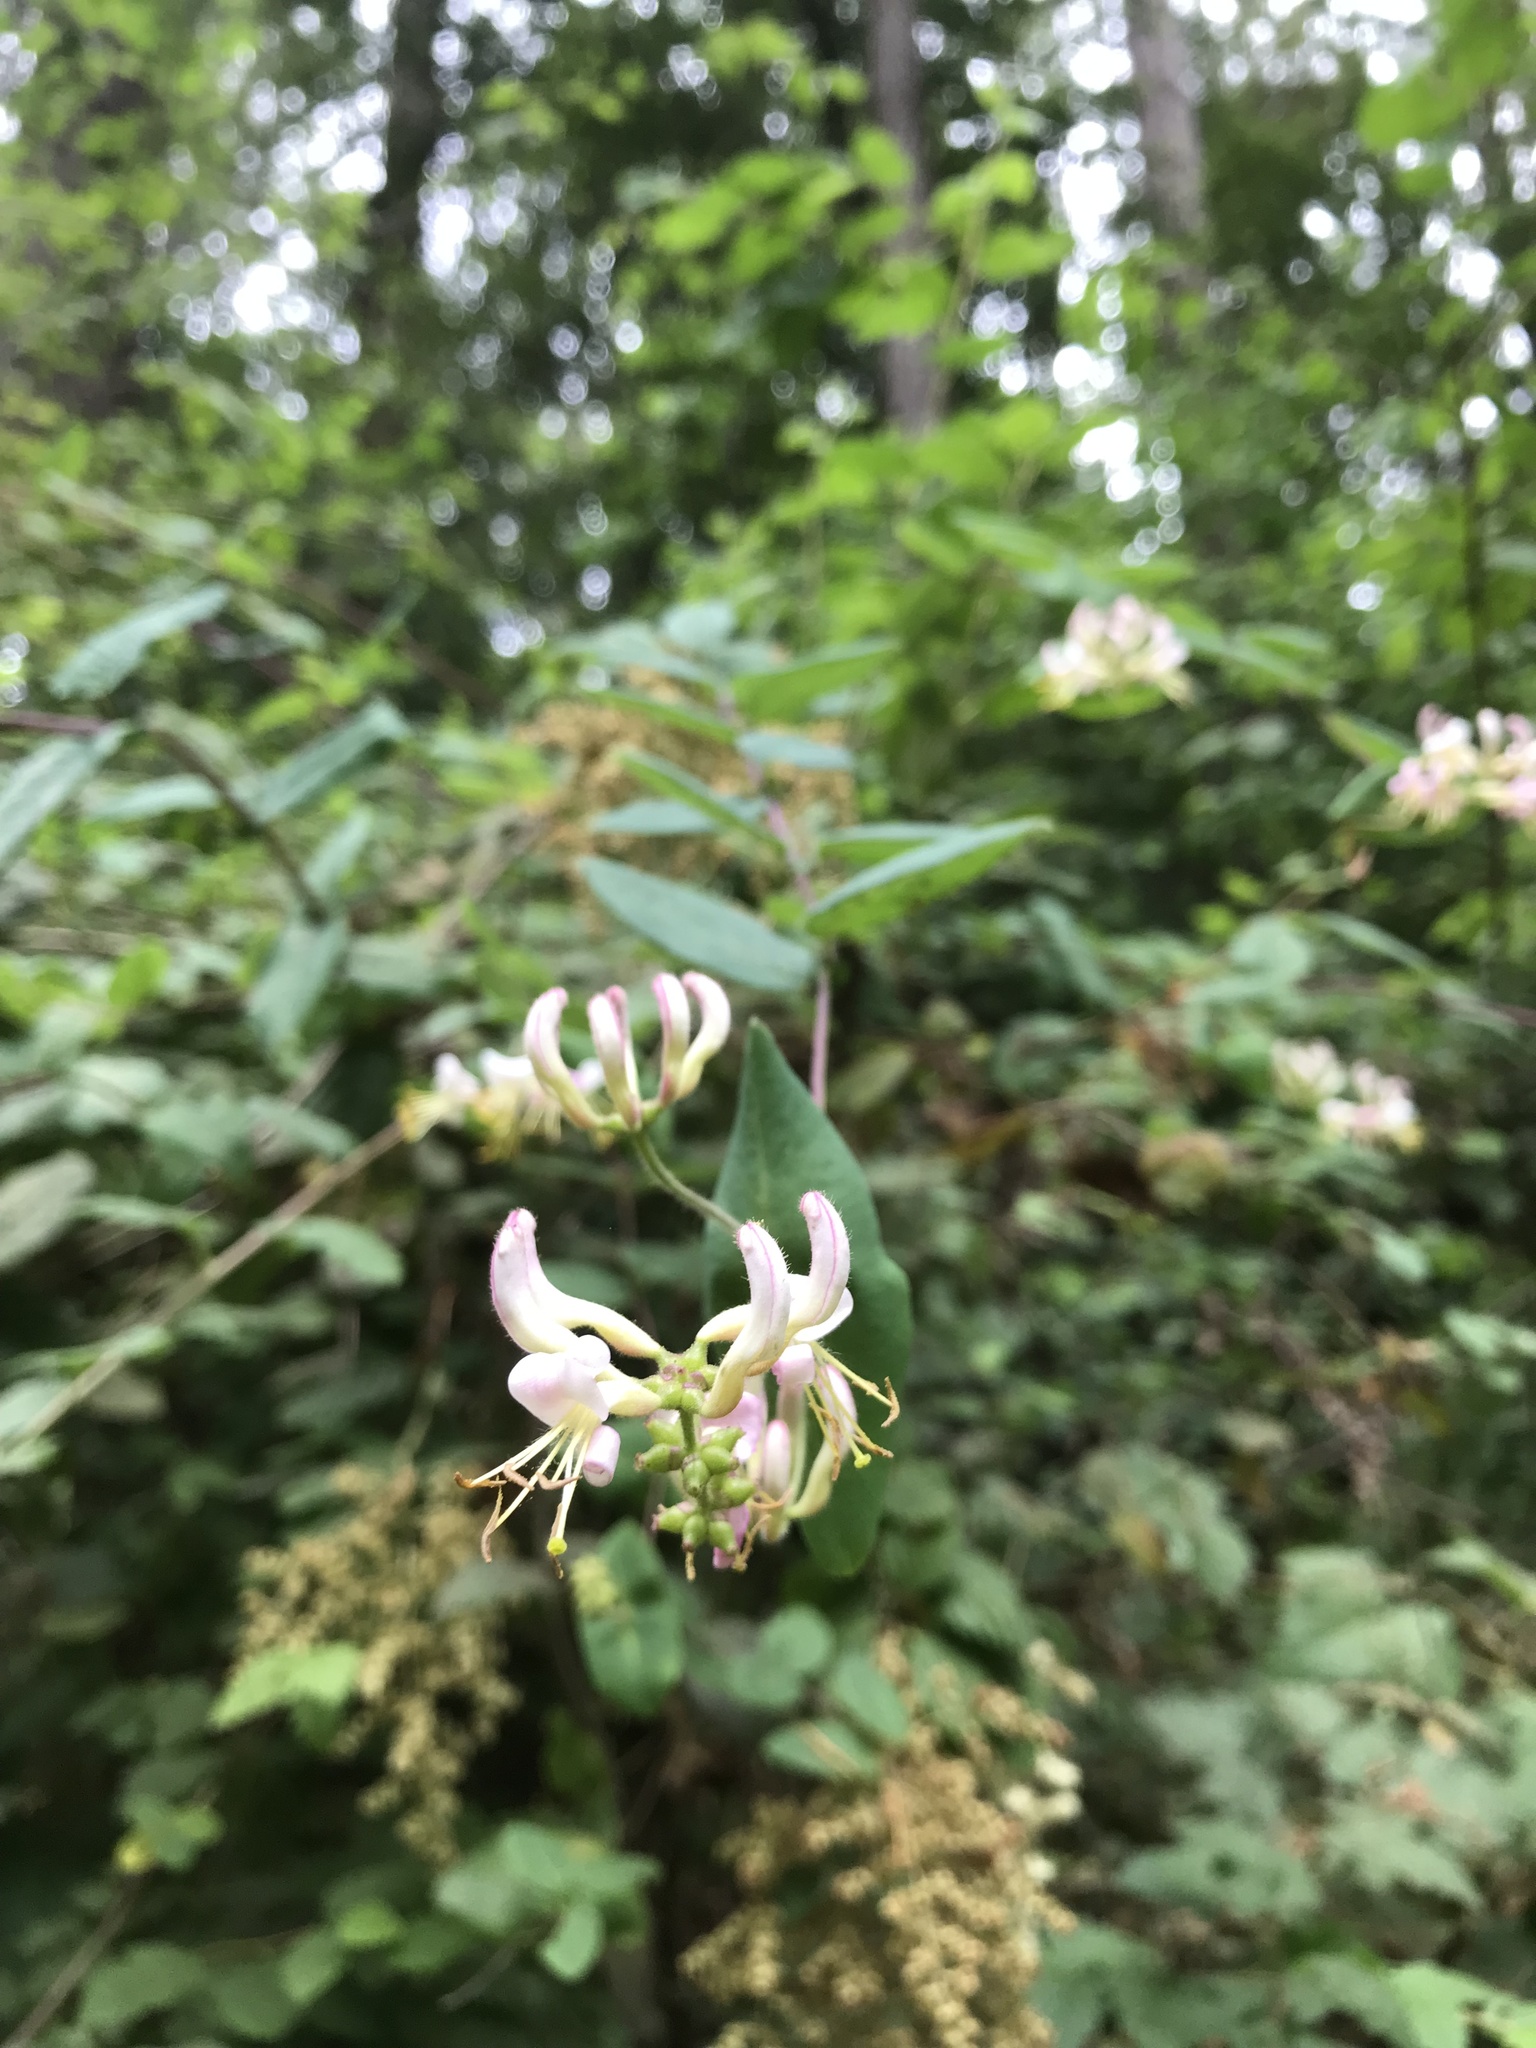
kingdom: Plantae
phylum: Tracheophyta
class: Magnoliopsida
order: Dipsacales
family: Caprifoliaceae
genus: Lonicera
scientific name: Lonicera hispidula
